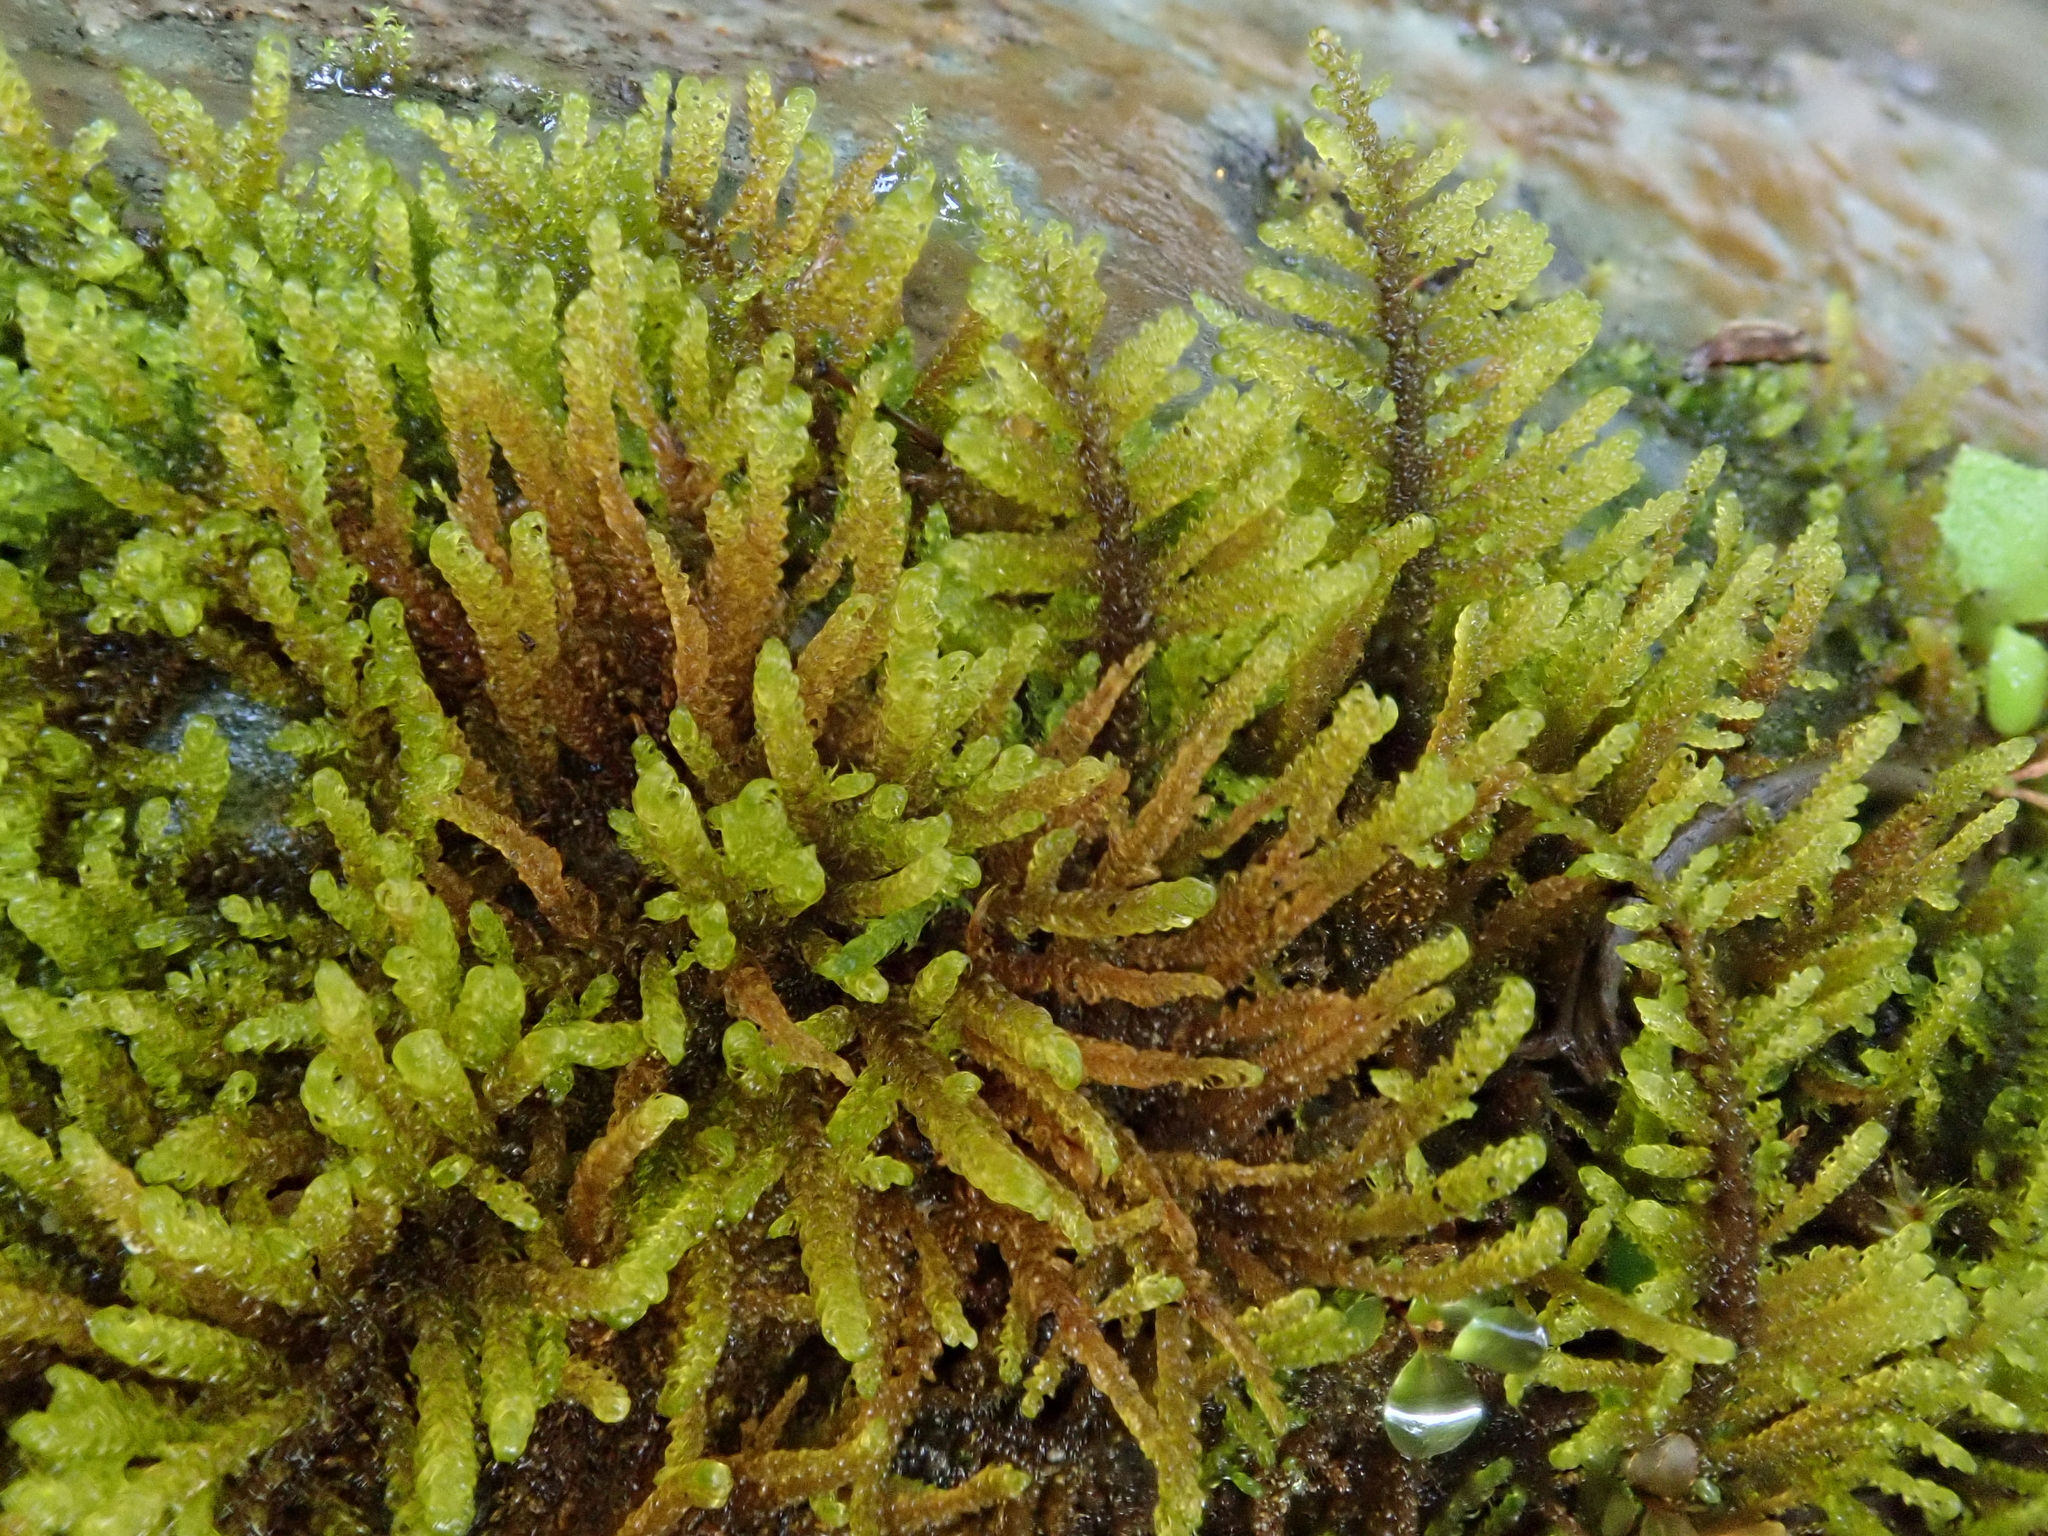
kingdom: Plantae
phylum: Bryophyta
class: Bryopsida
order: Hypnales
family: Amblystegiaceae
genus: Palustriella
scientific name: Palustriella commutata
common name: Curled hook-moss
